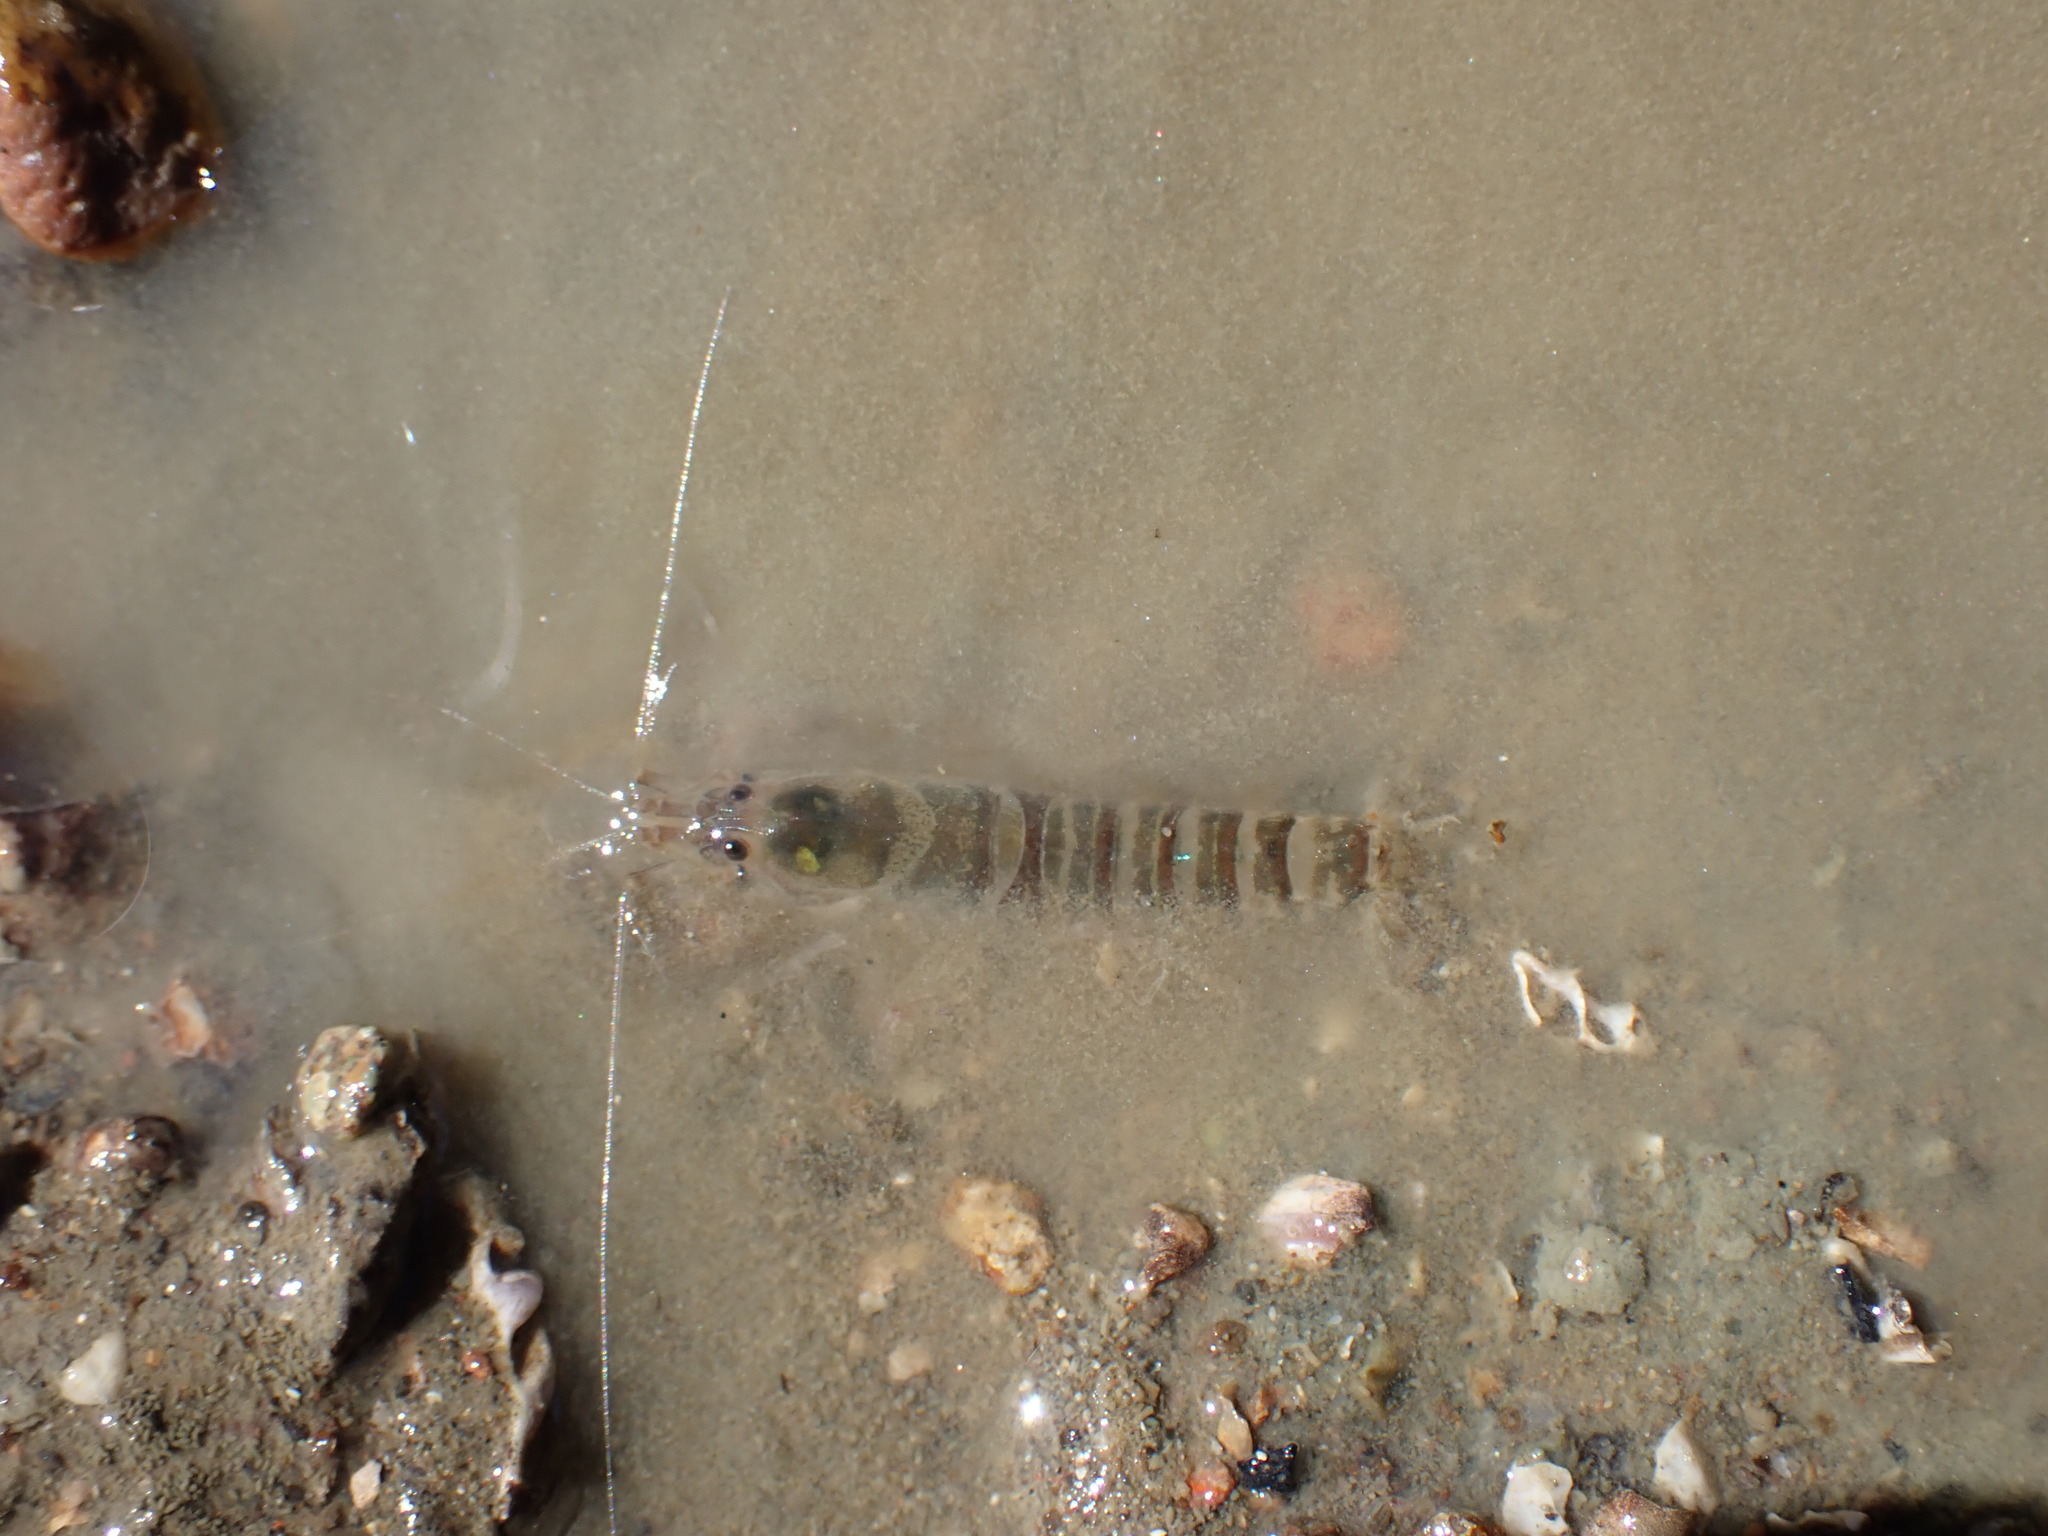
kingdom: Animalia
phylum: Arthropoda
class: Malacostraca
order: Decapoda
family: Alpheidae
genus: Alpheus
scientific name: Alpheus richardsoni
